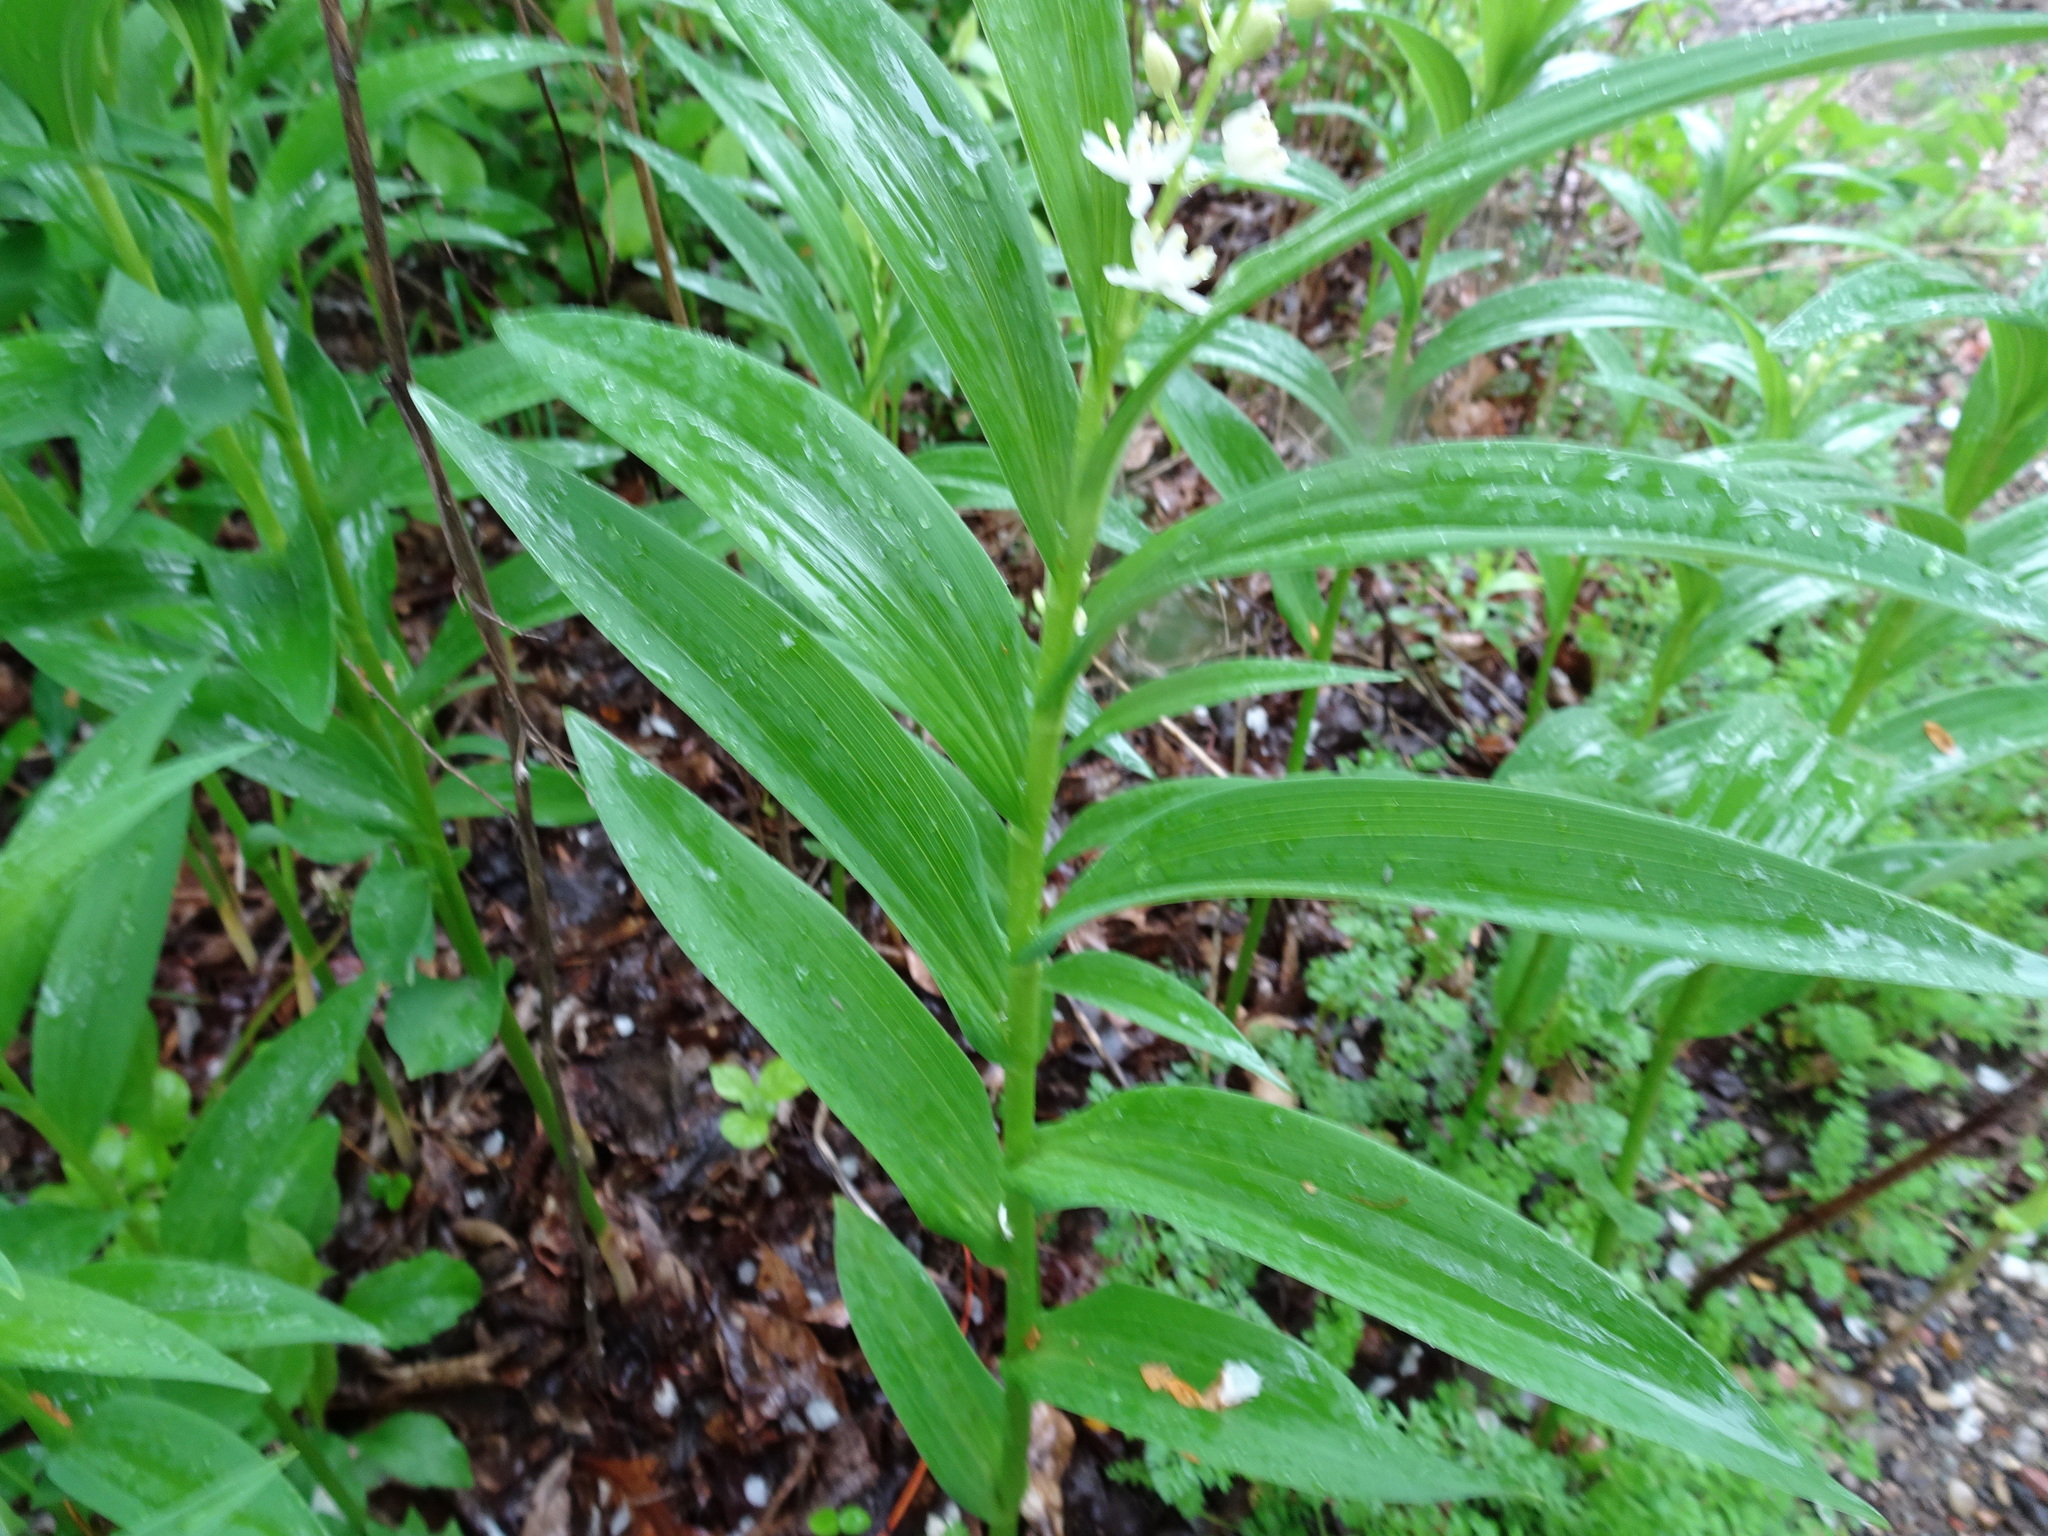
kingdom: Plantae
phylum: Tracheophyta
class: Liliopsida
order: Asparagales
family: Asparagaceae
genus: Maianthemum
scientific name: Maianthemum stellatum
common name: Little false solomon's seal
